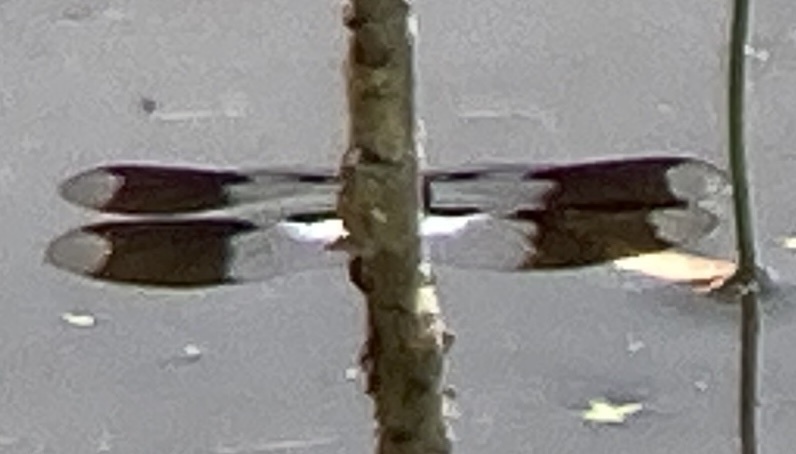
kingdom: Animalia
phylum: Arthropoda
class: Insecta
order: Odonata
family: Libellulidae
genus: Plathemis
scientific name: Plathemis lydia
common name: Common whitetail
